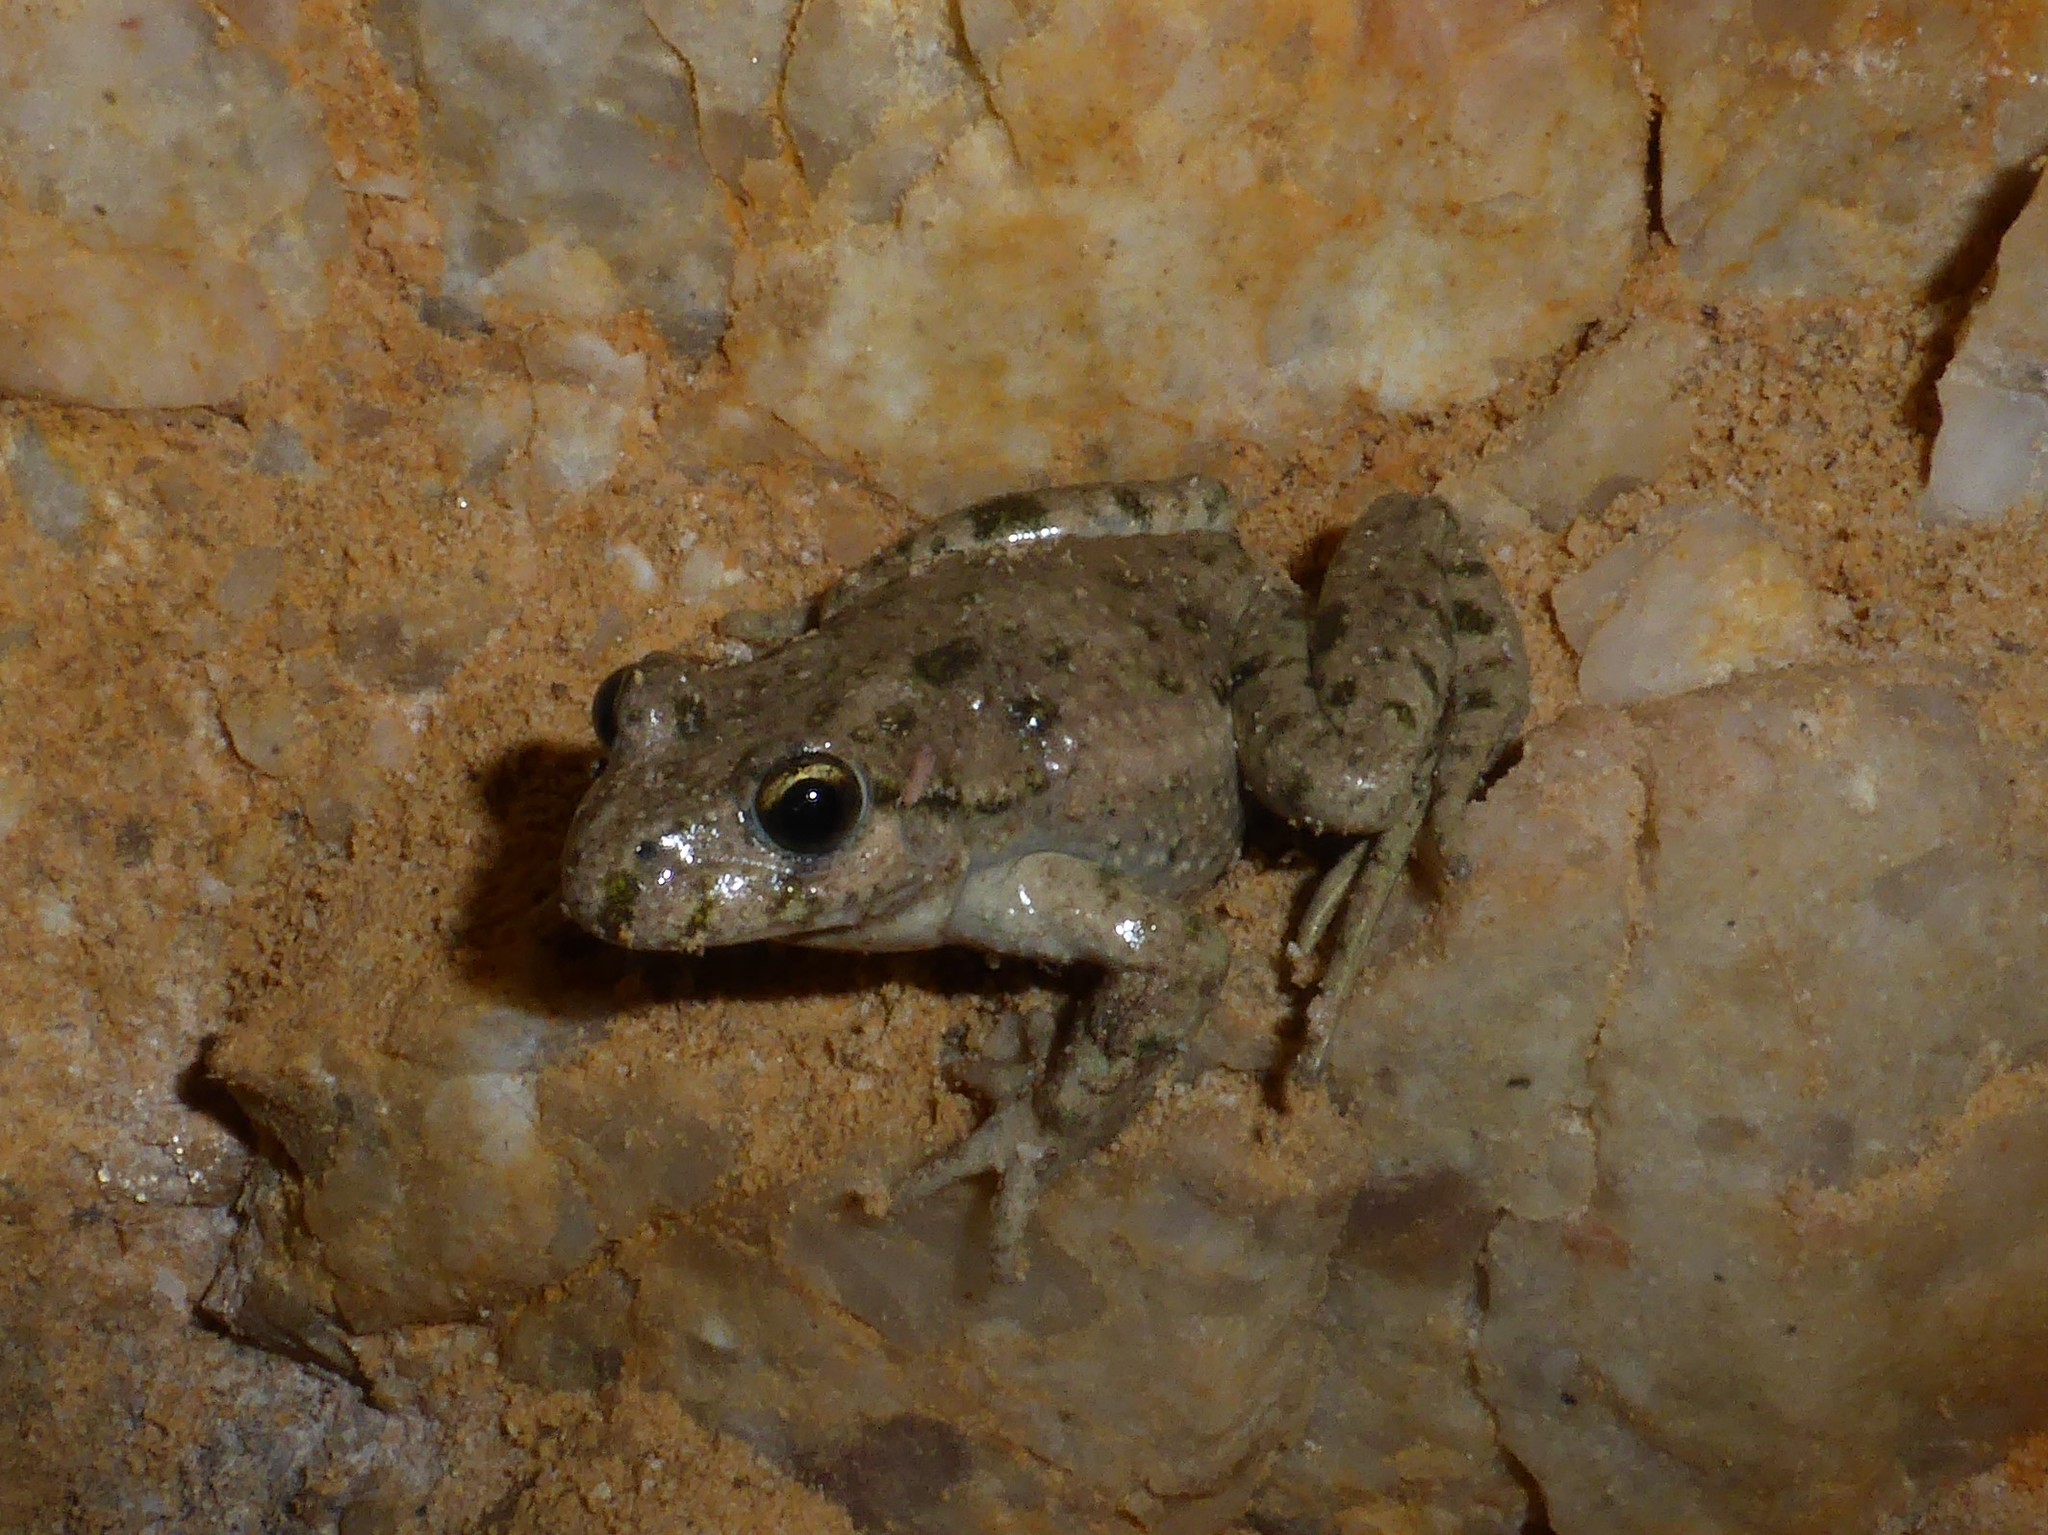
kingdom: Animalia
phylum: Chordata
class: Amphibia
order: Anura
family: Pelodytidae
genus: Pelodytes
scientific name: Pelodytes punctatus
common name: Parsley frog
